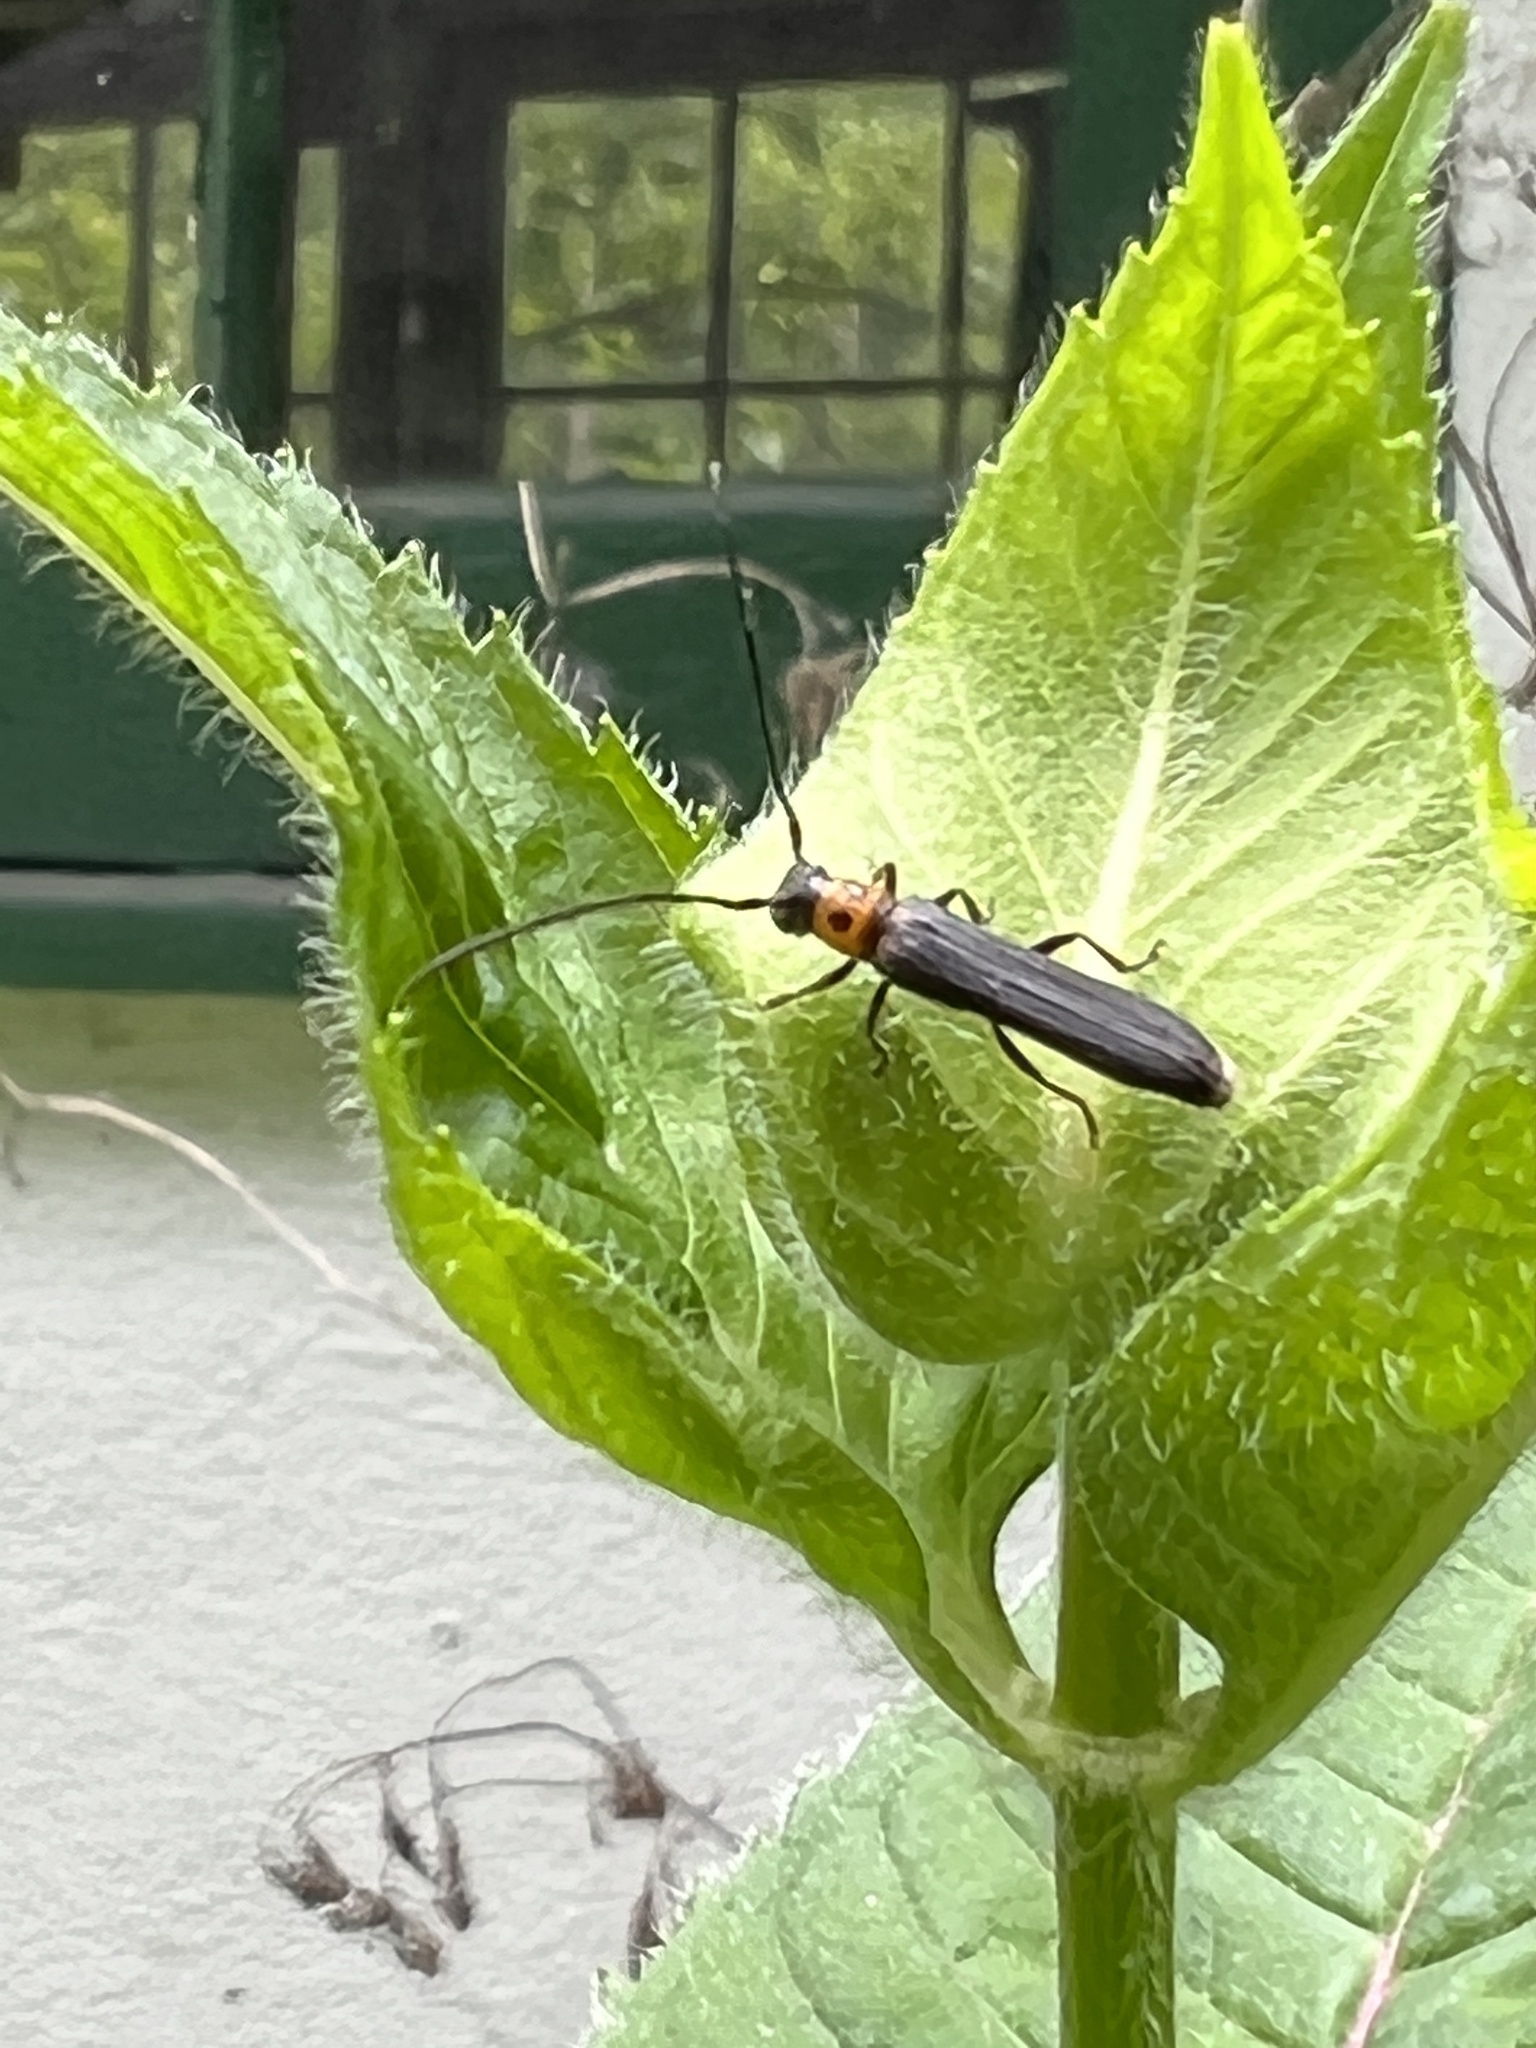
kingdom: Animalia
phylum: Arthropoda
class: Insecta
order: Coleoptera
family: Cerambycidae
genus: Oberea
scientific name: Oberea perspicillata
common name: Raspberry cane borer
